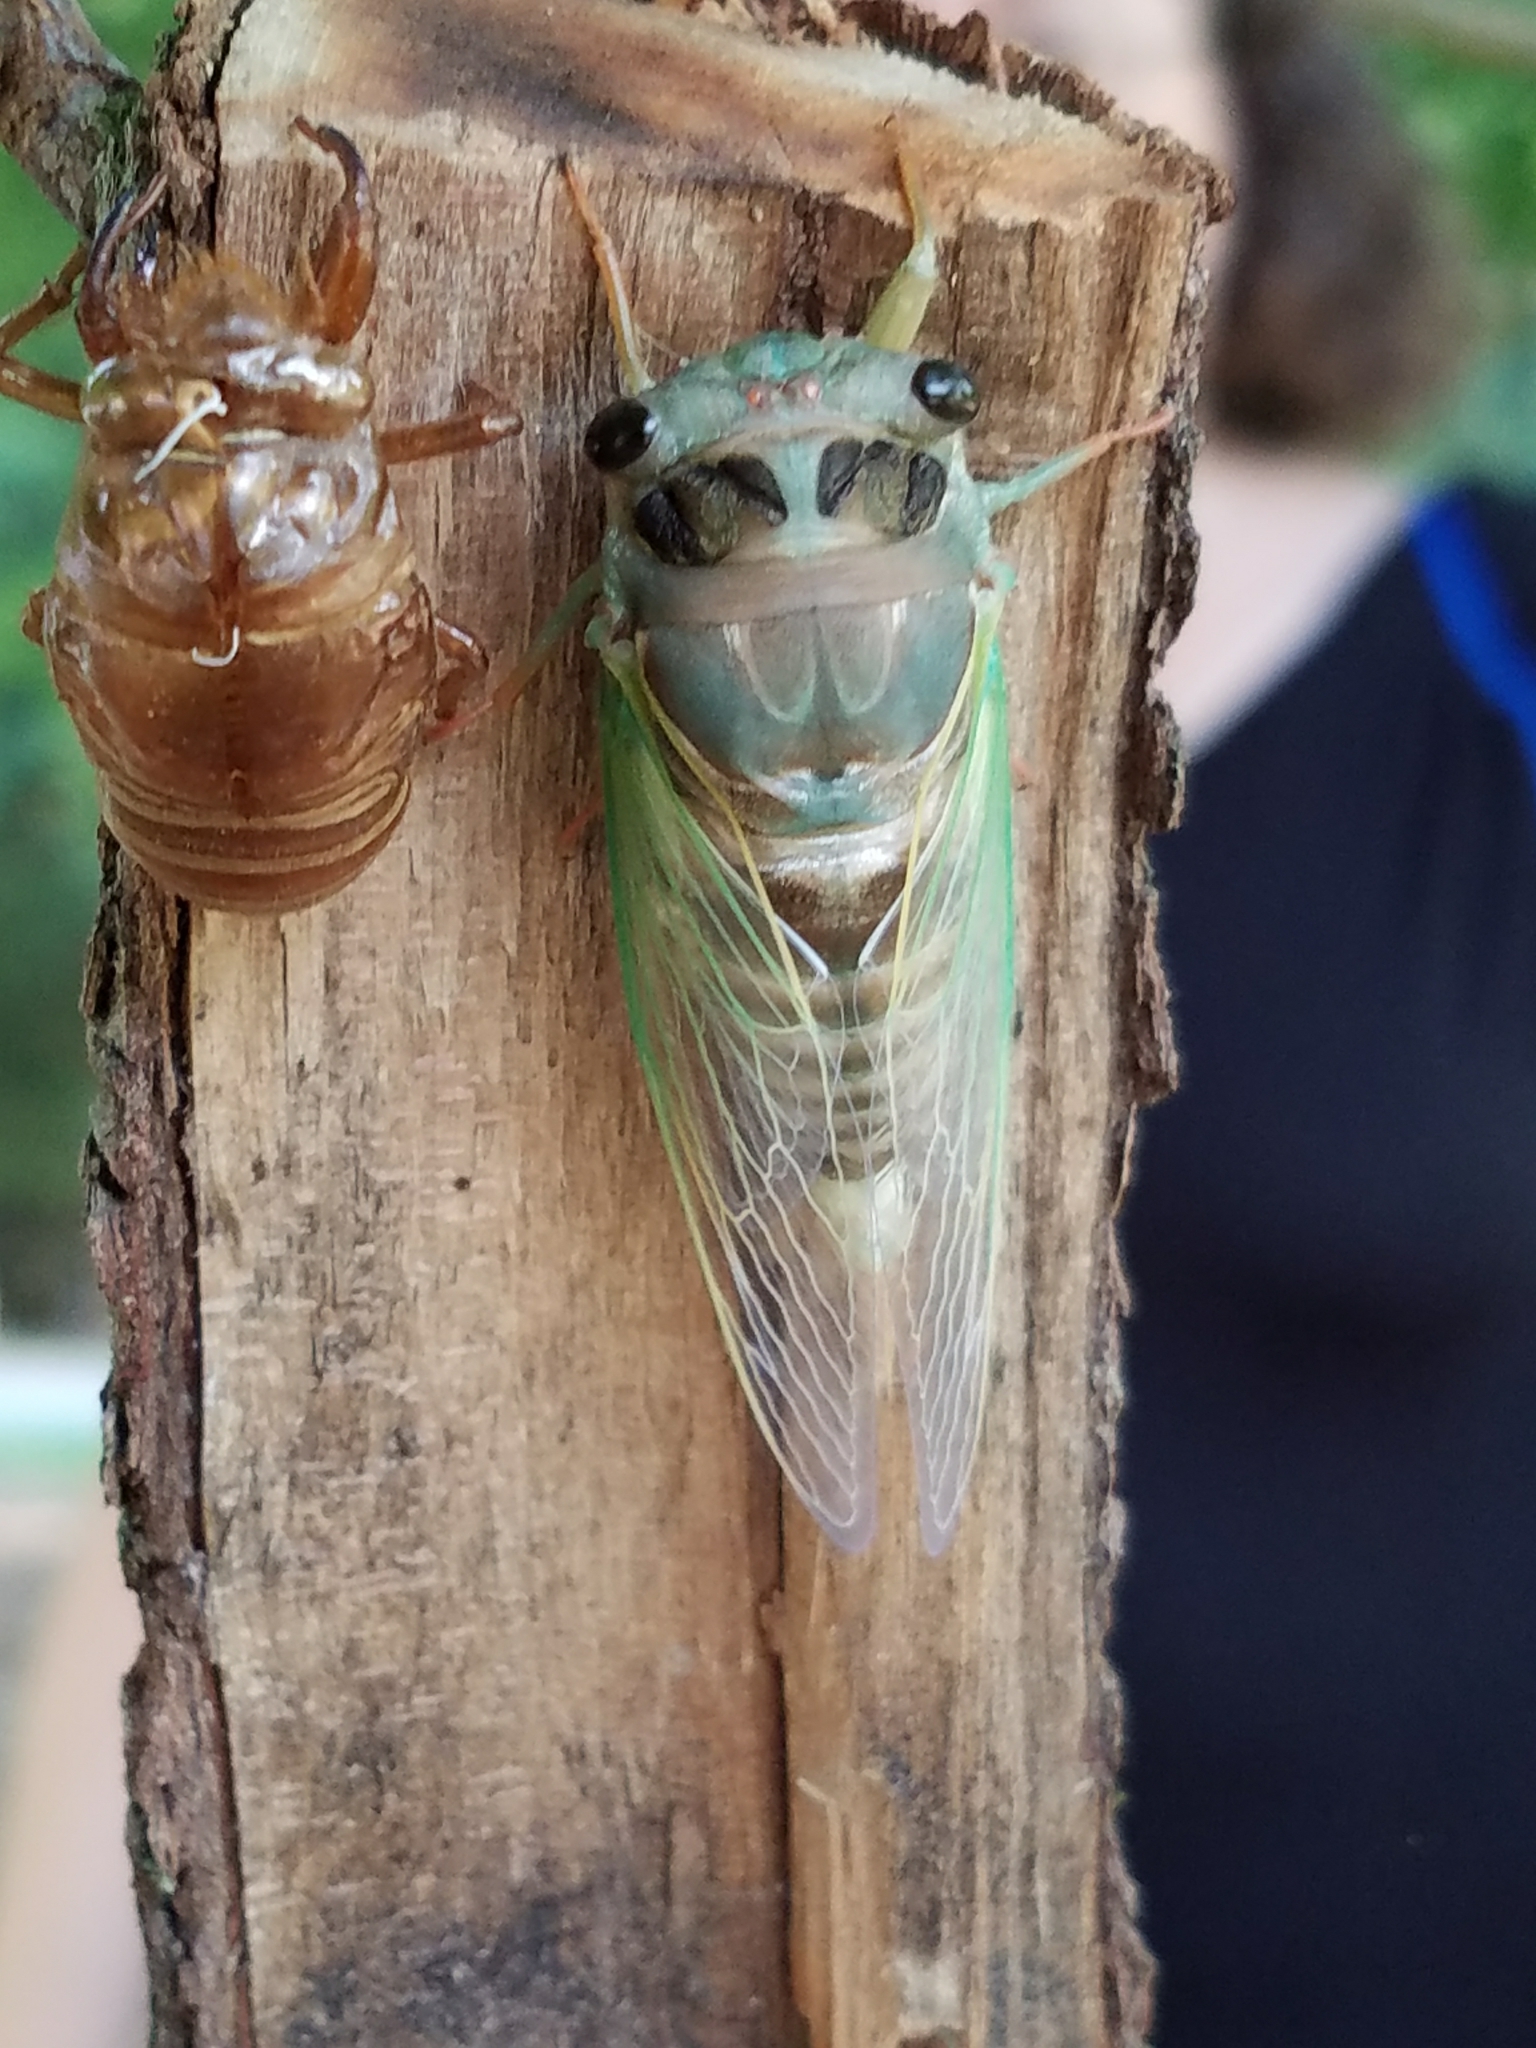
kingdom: Animalia
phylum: Arthropoda
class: Insecta
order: Hemiptera
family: Cicadidae
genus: Neotibicen
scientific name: Neotibicen lyricen
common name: Lyric cicada
